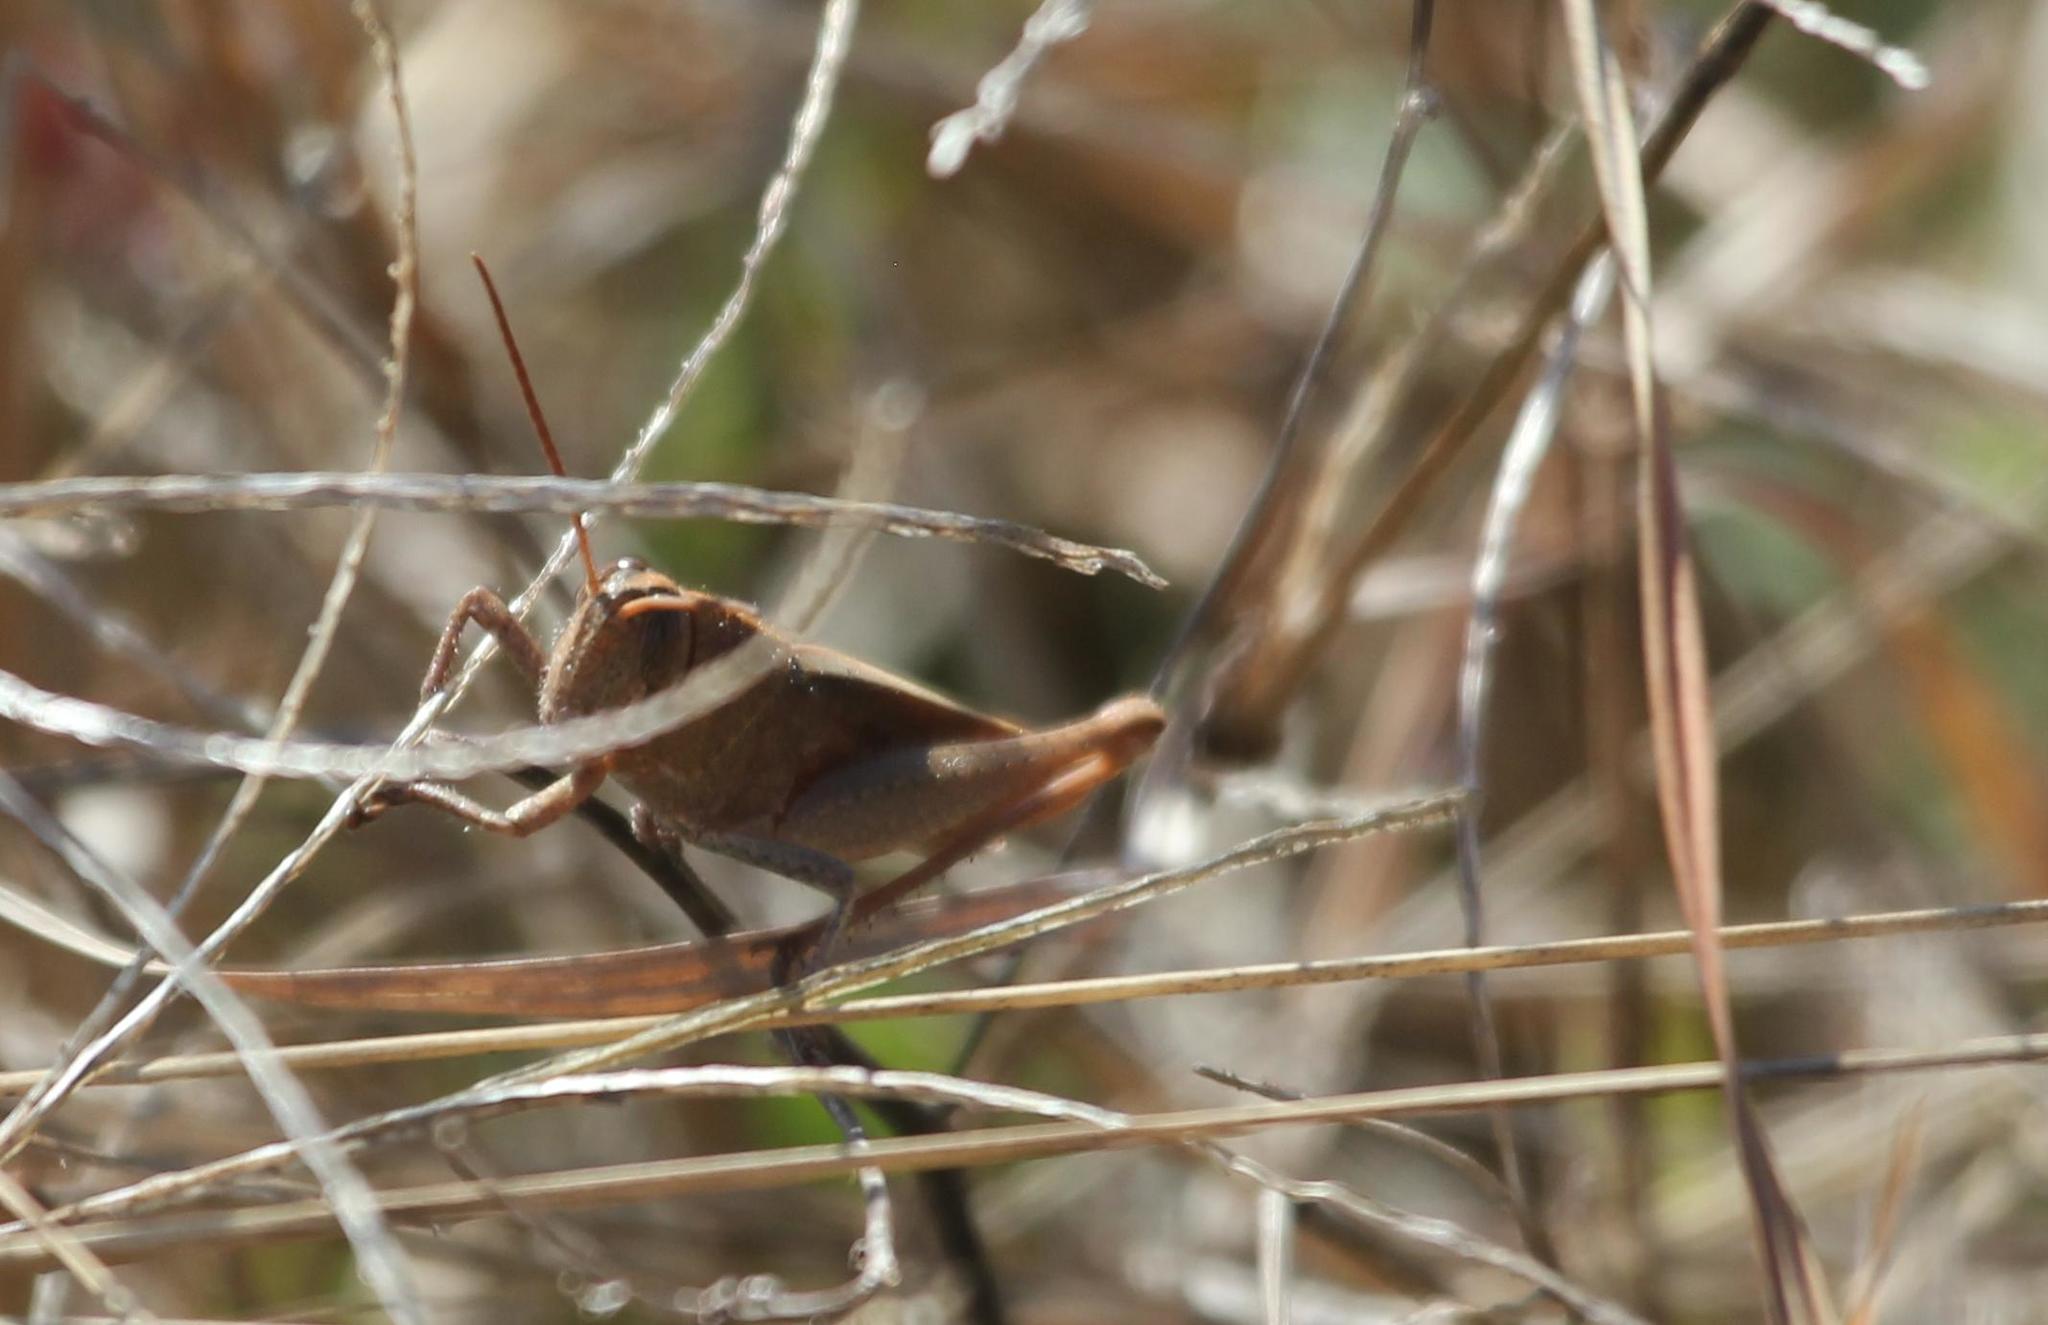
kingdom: Animalia
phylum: Arthropoda
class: Insecta
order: Orthoptera
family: Acrididae
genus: Schistocerca
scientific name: Schistocerca damnifica
